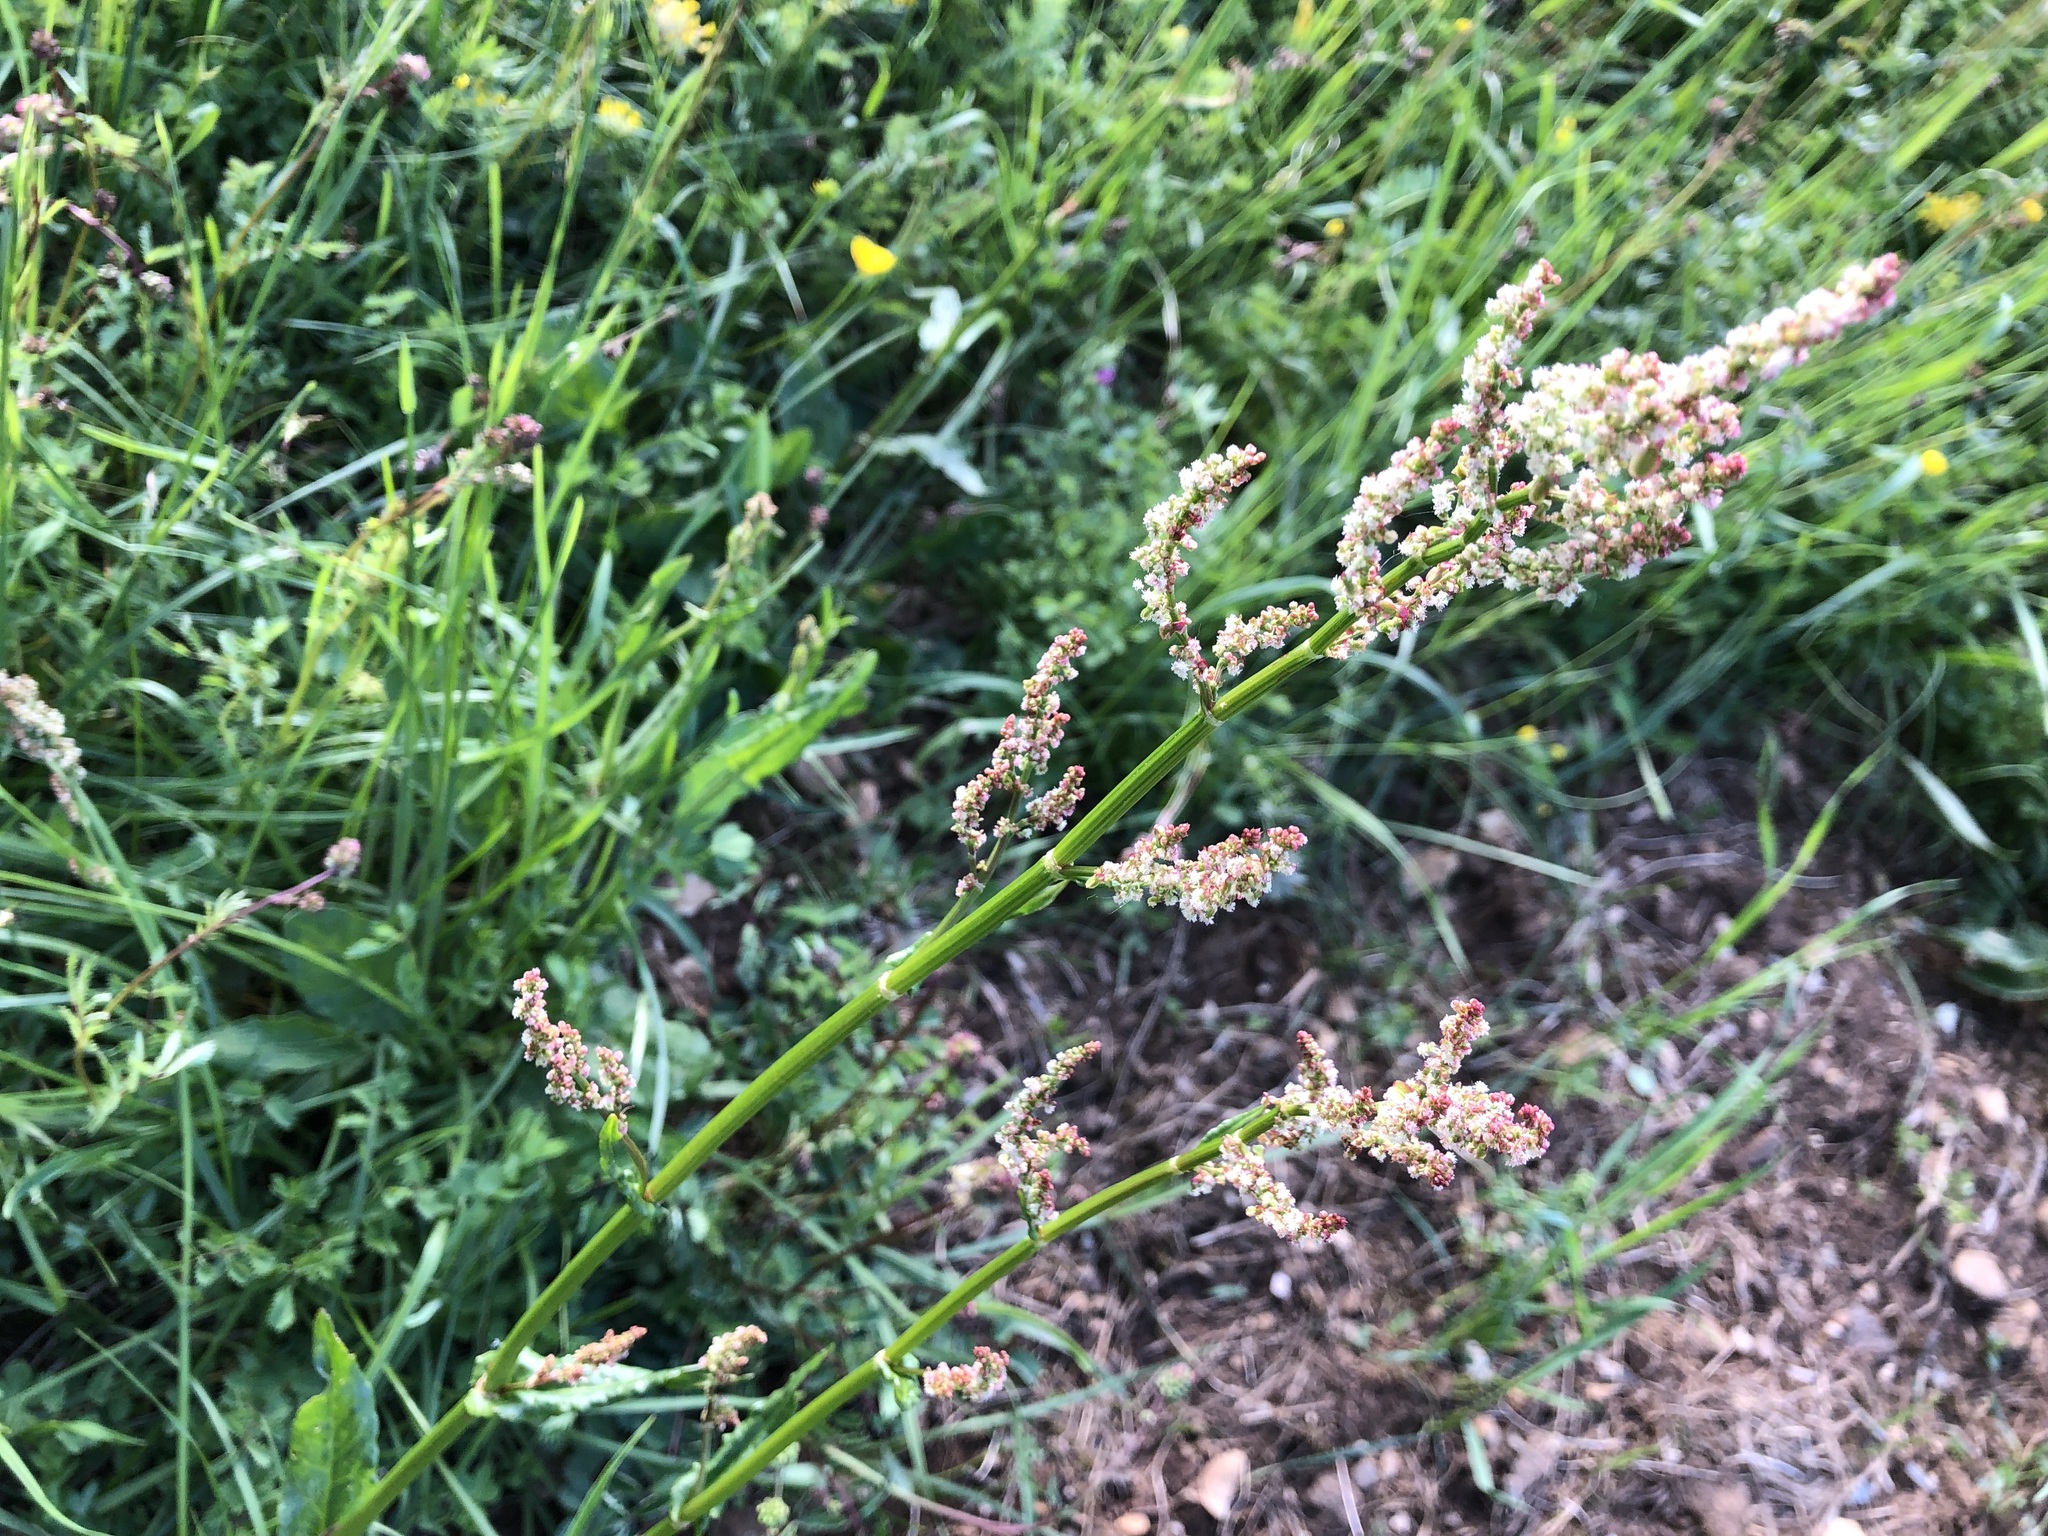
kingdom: Plantae
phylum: Tracheophyta
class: Magnoliopsida
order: Caryophyllales
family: Polygonaceae
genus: Rumex
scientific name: Rumex acetosa
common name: Garden sorrel
